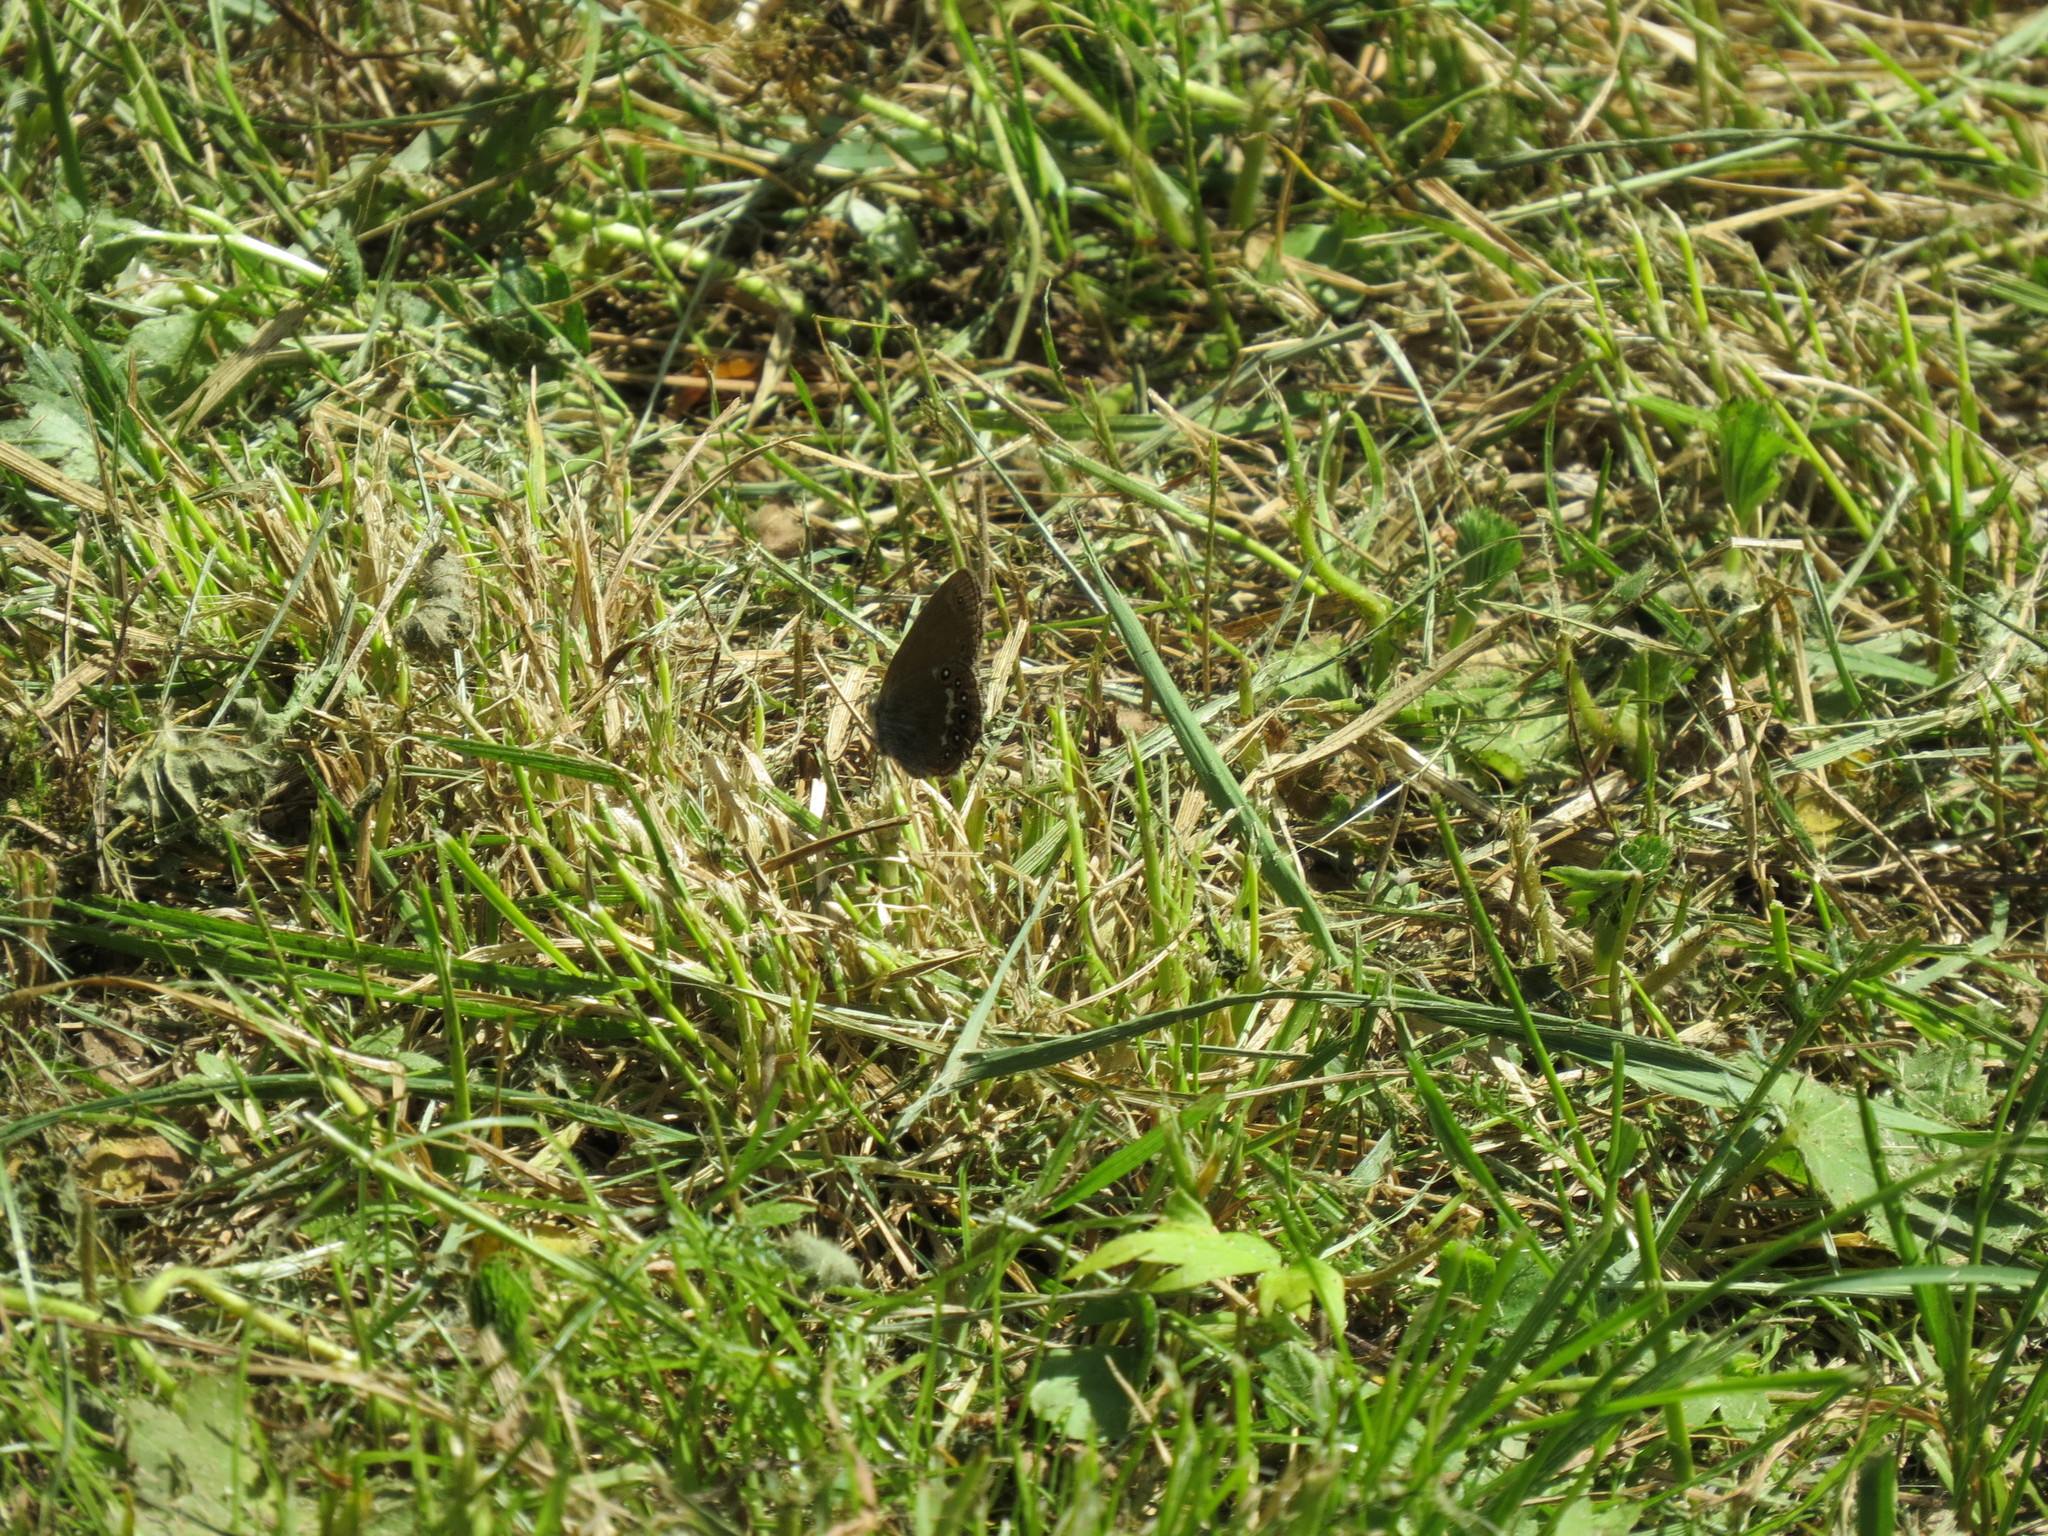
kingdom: Animalia
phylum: Arthropoda
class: Insecta
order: Lepidoptera
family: Nymphalidae
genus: Coenonympha
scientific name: Coenonympha hero
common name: Scarce heath
